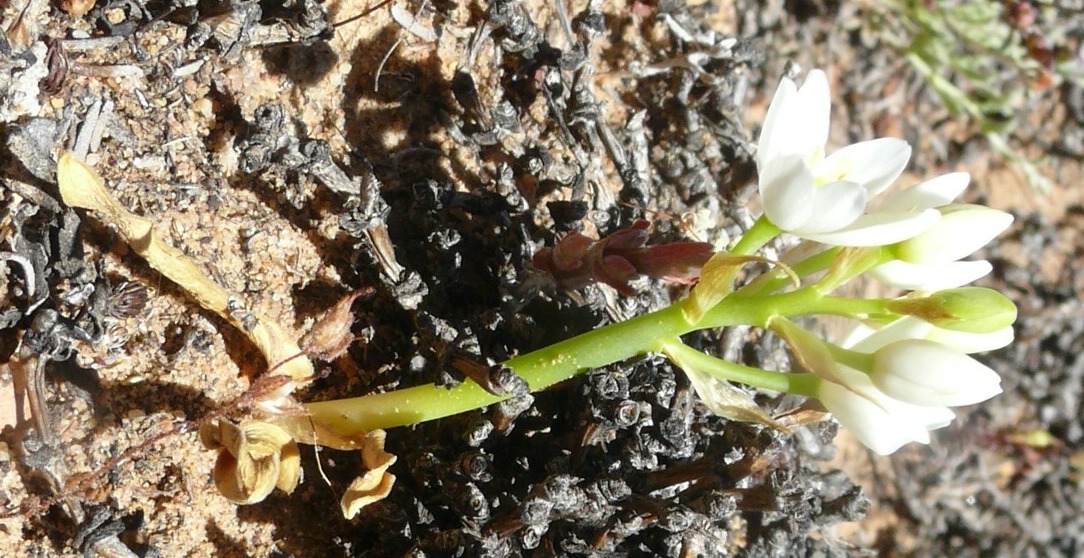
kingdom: Plantae
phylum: Tracheophyta
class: Liliopsida
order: Asparagales
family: Asparagaceae
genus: Ornithogalum
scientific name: Ornithogalum dubium
